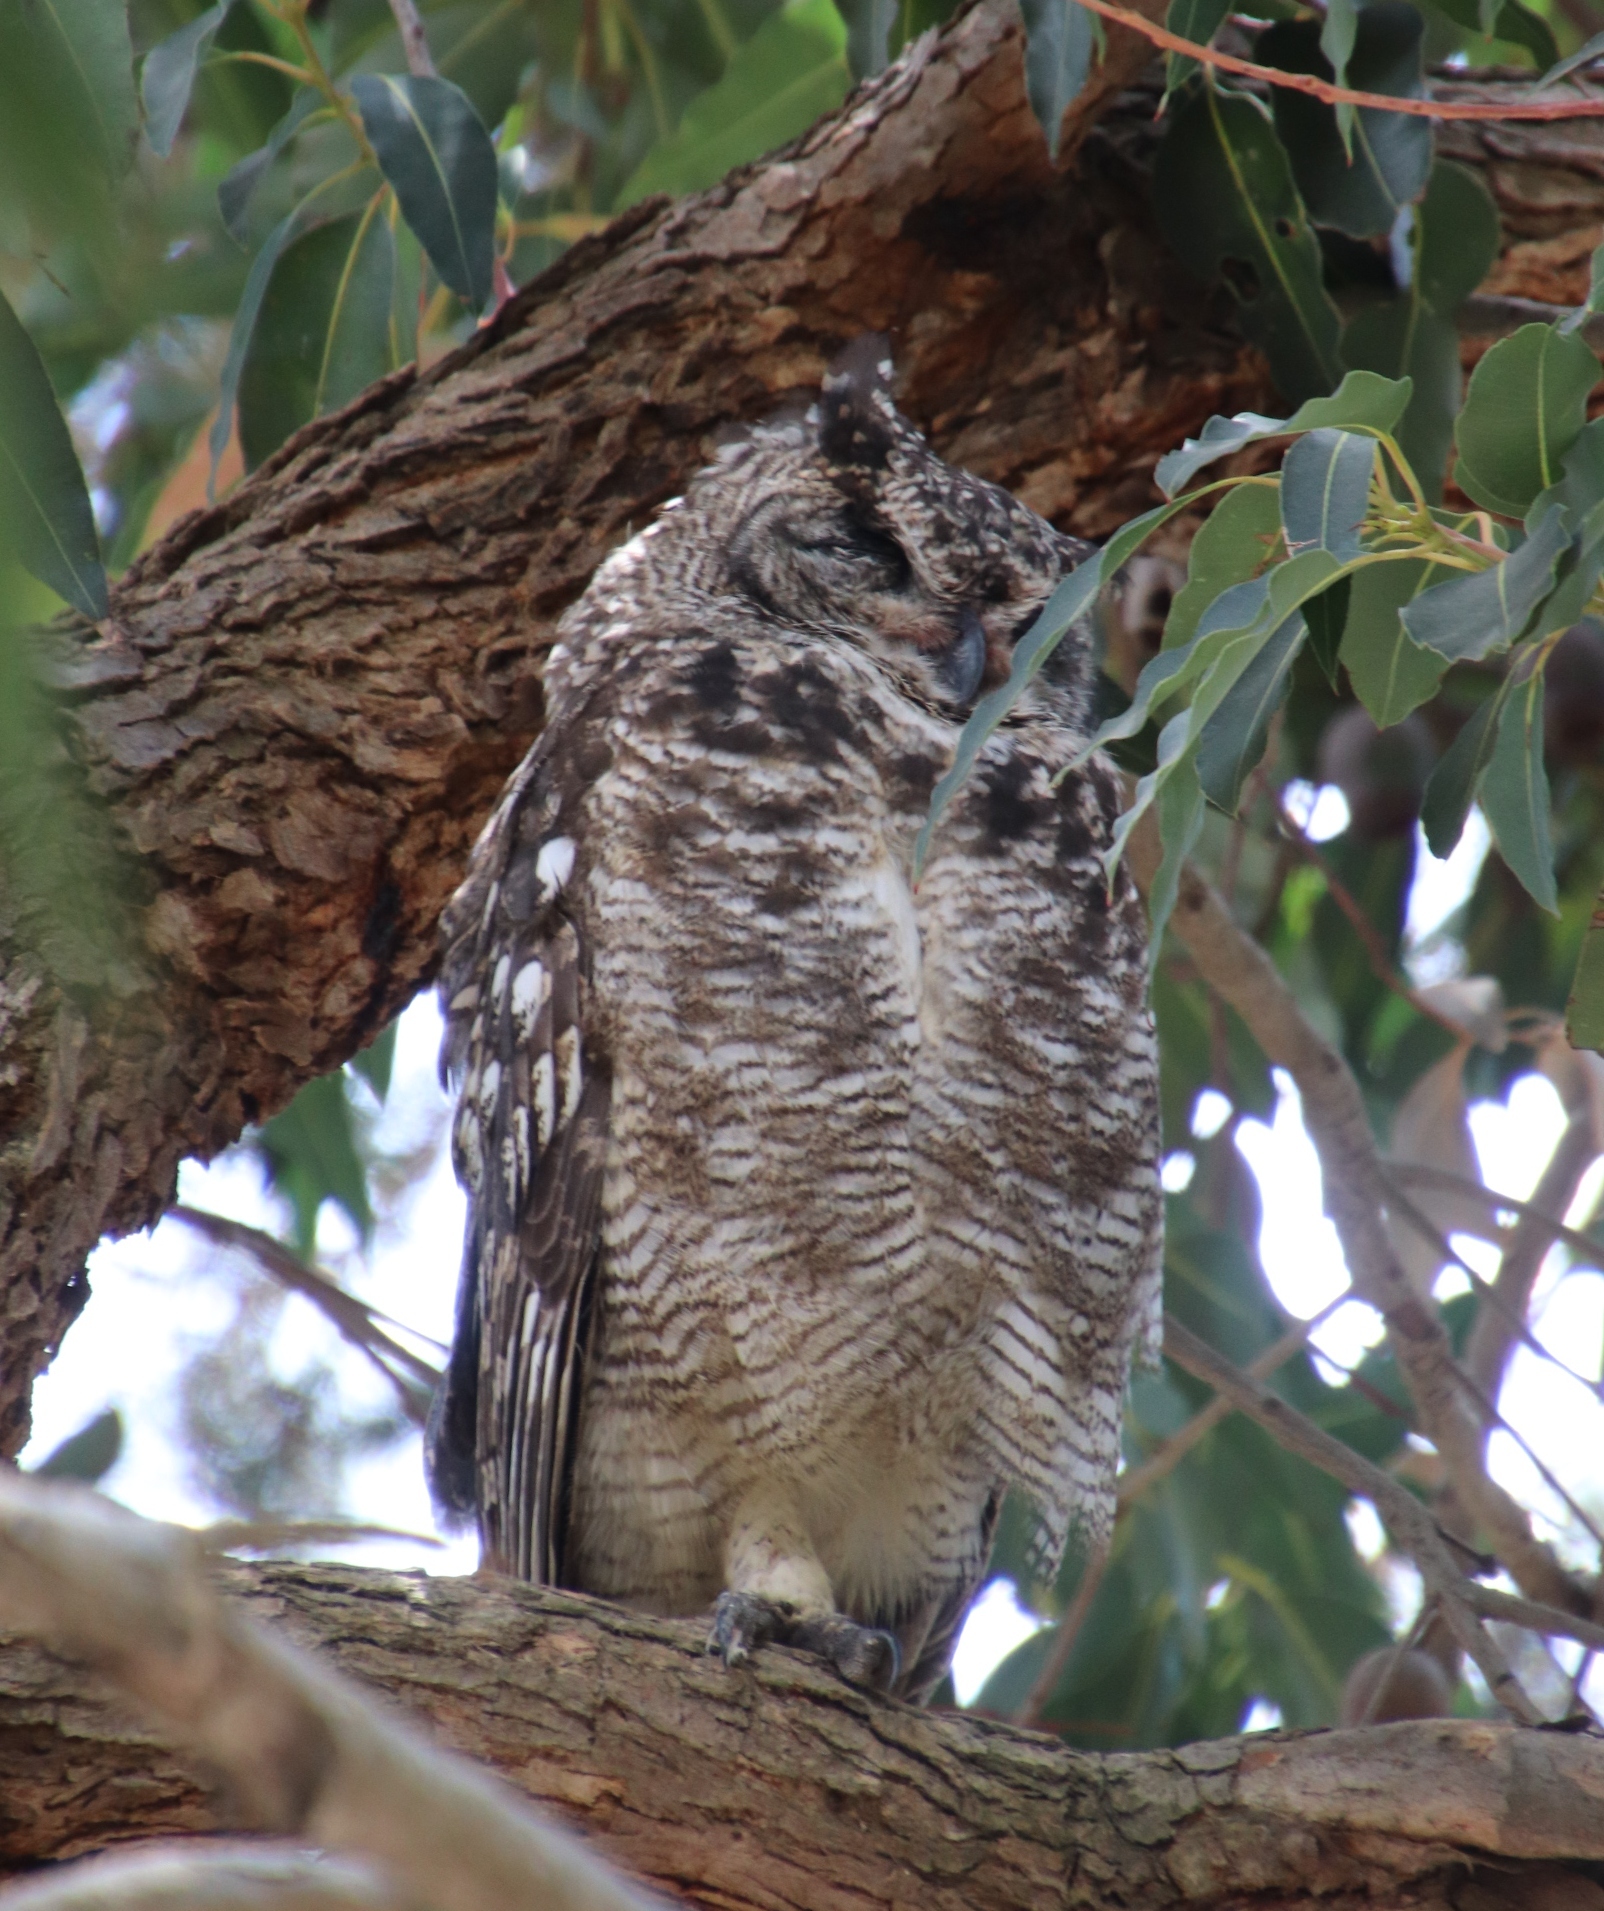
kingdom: Animalia
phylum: Chordata
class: Aves
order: Strigiformes
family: Strigidae
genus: Bubo
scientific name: Bubo africanus
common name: Spotted eagle-owl
